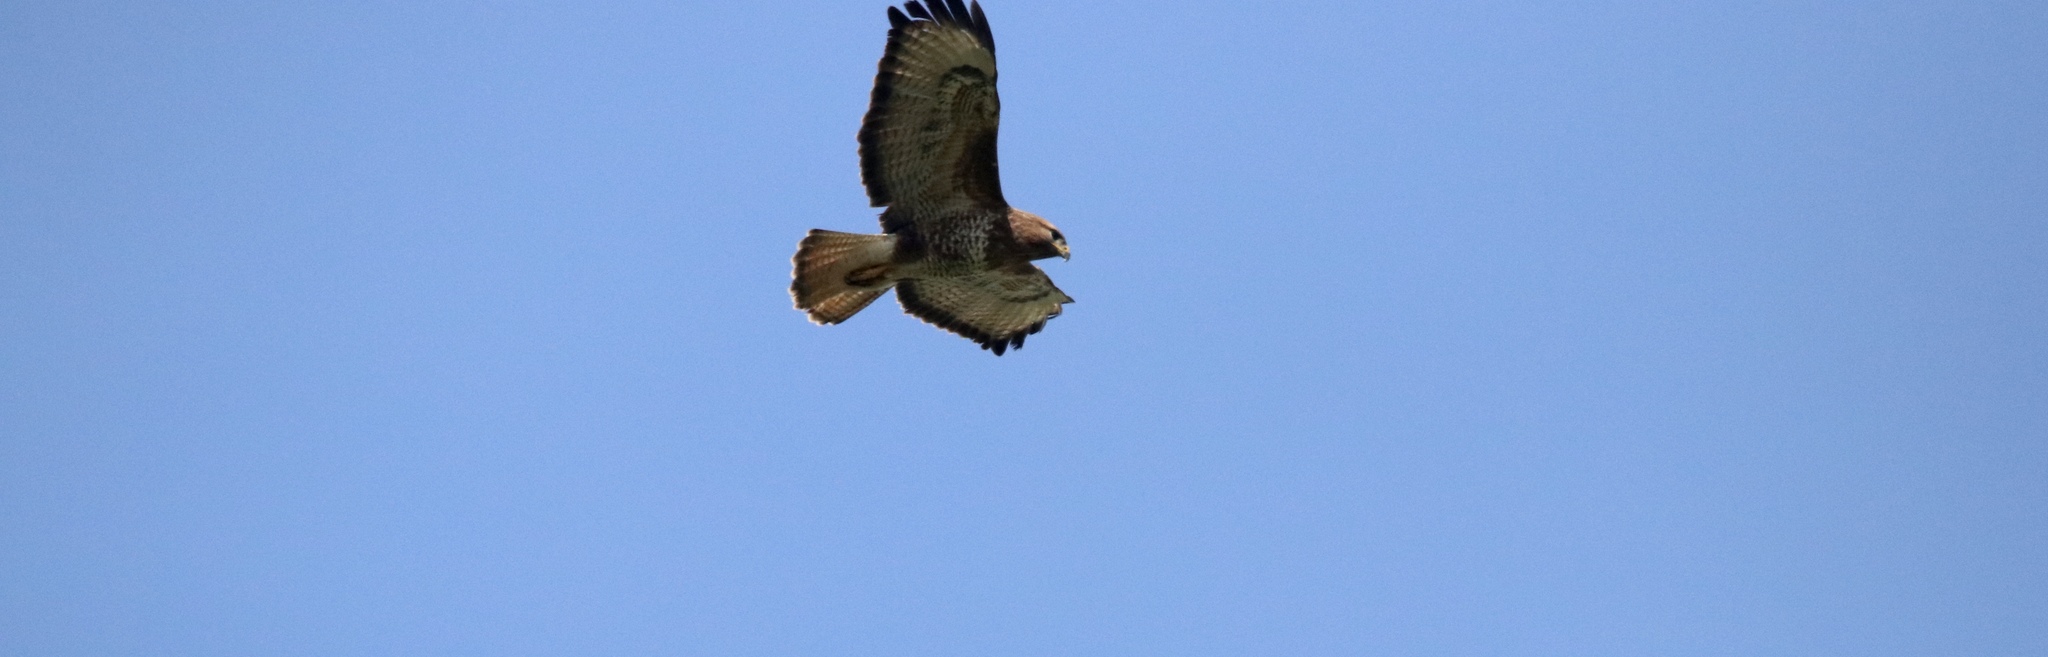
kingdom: Animalia
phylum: Chordata
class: Aves
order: Accipitriformes
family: Accipitridae
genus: Buteo
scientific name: Buteo buteo
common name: Common buzzard
